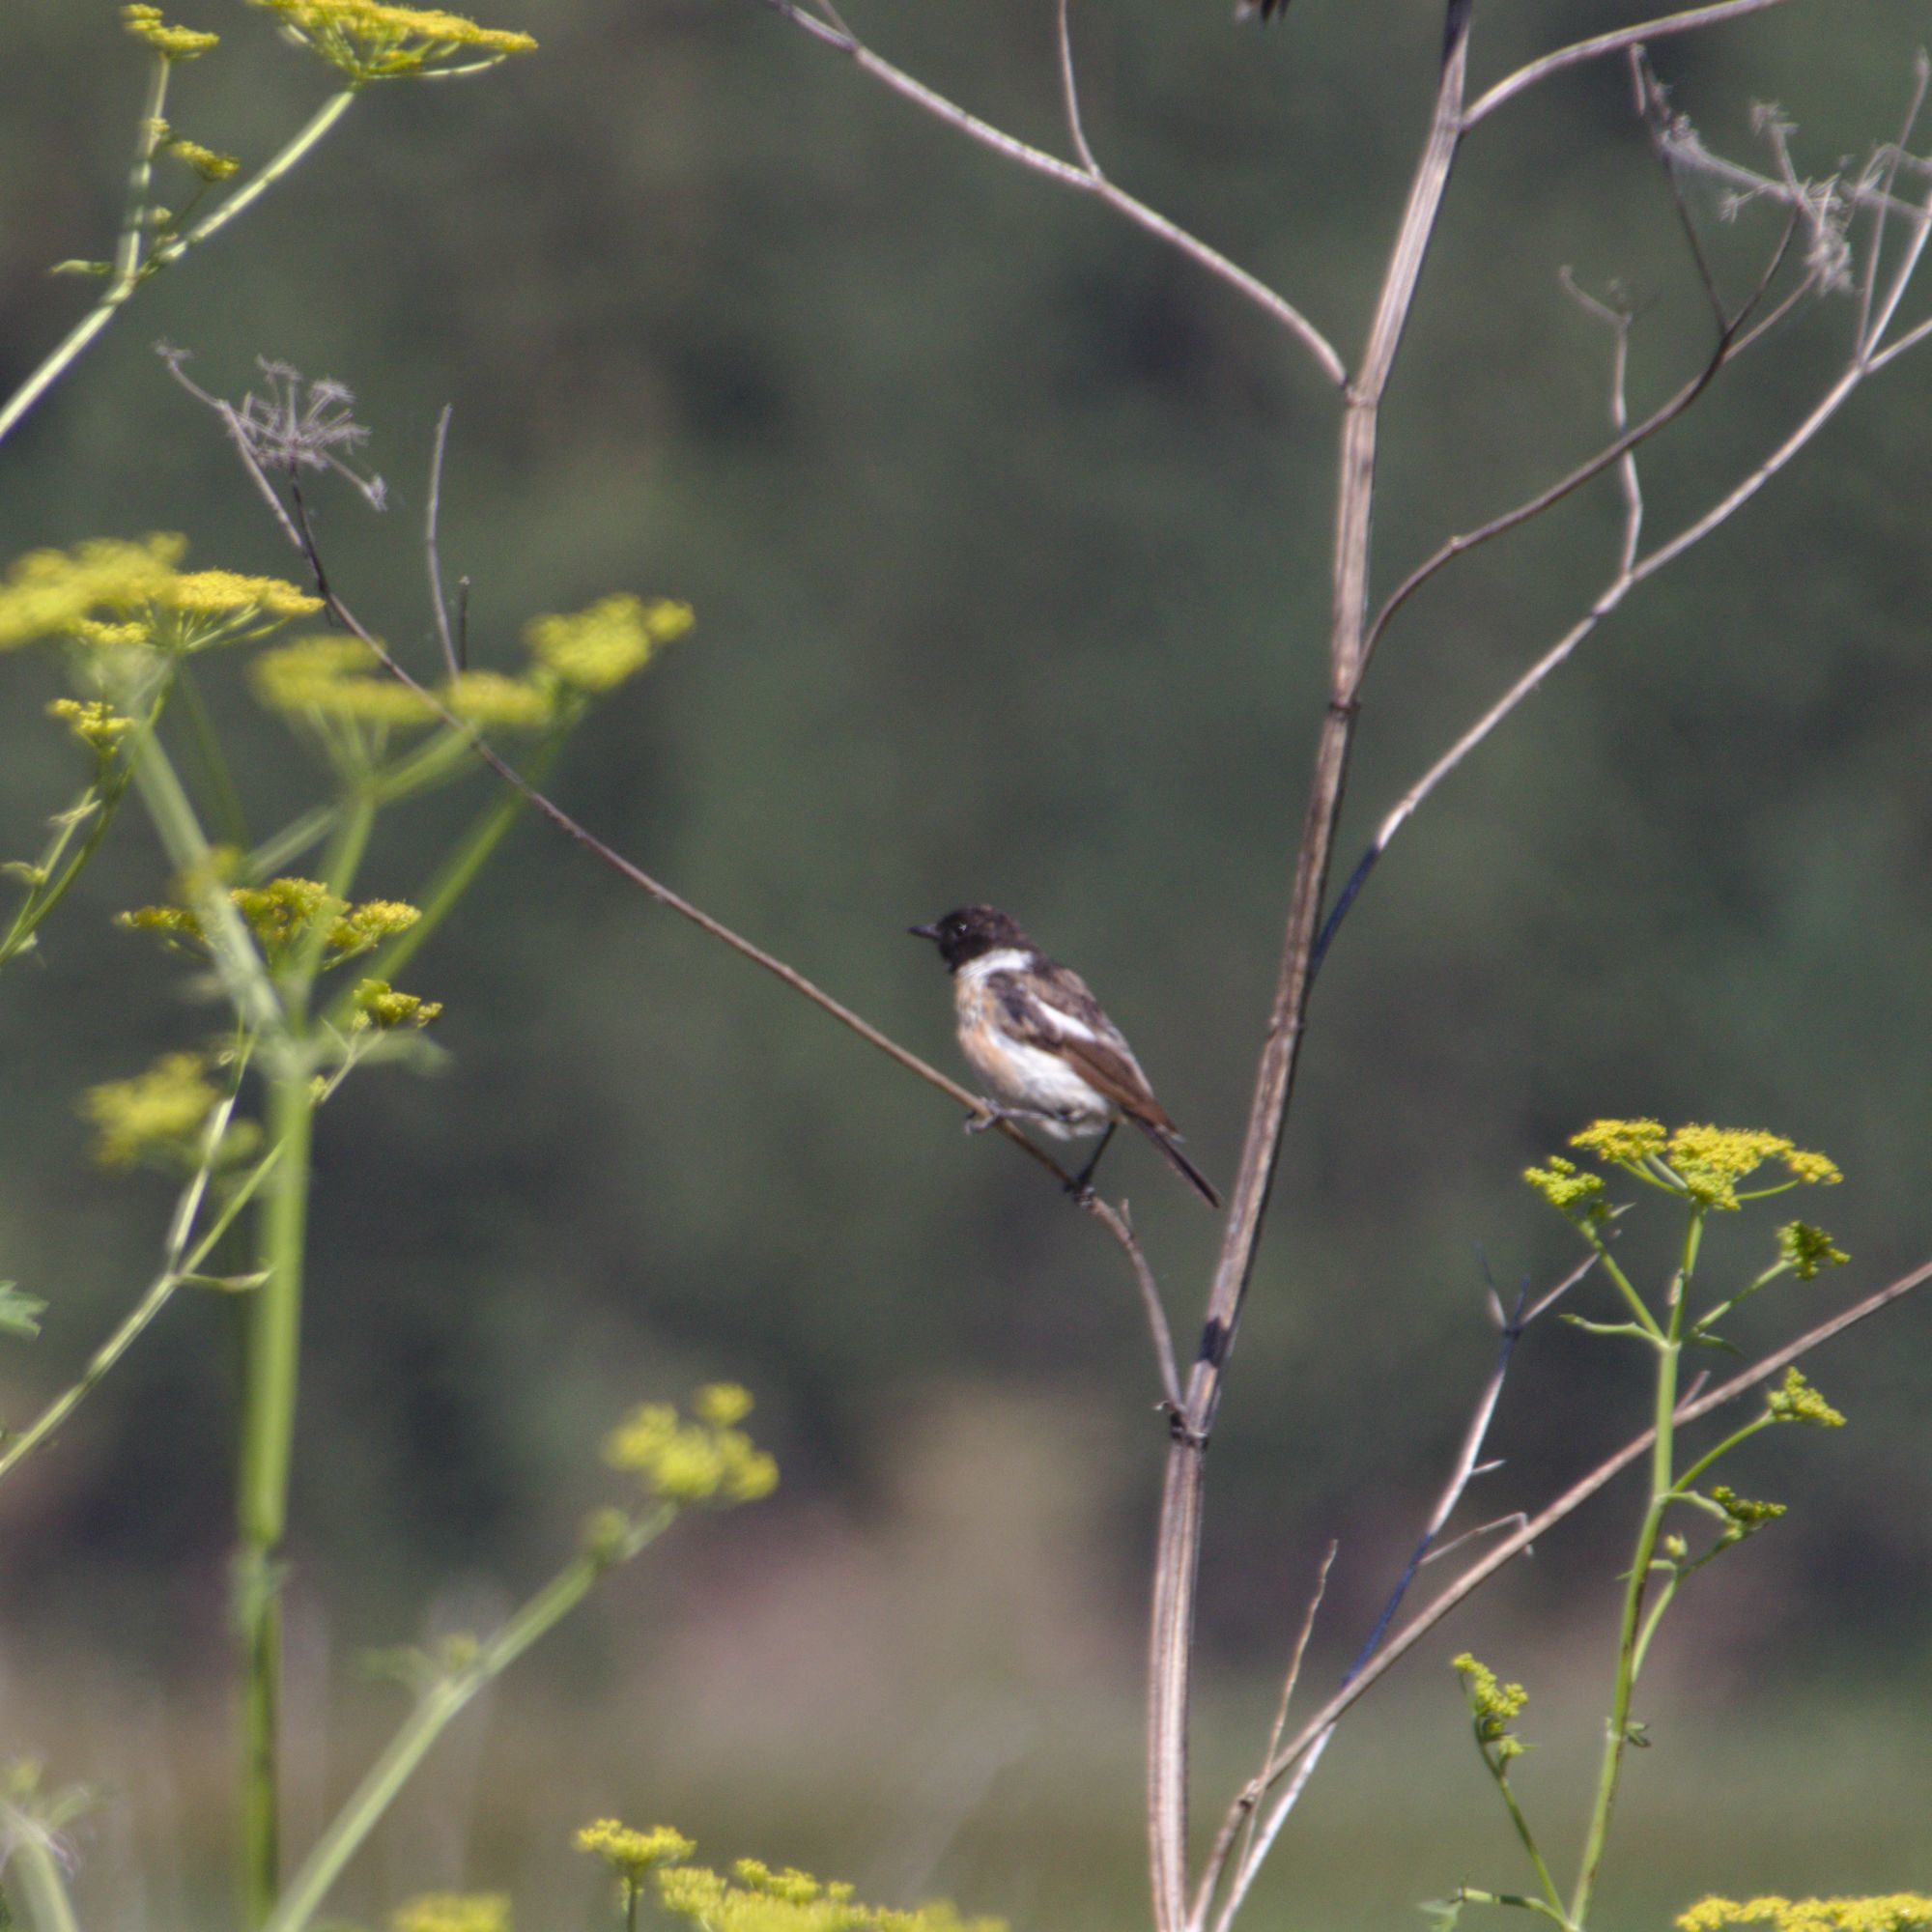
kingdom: Animalia
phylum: Chordata
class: Aves
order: Passeriformes
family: Muscicapidae
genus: Saxicola
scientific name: Saxicola maurus
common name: Siberian stonechat
